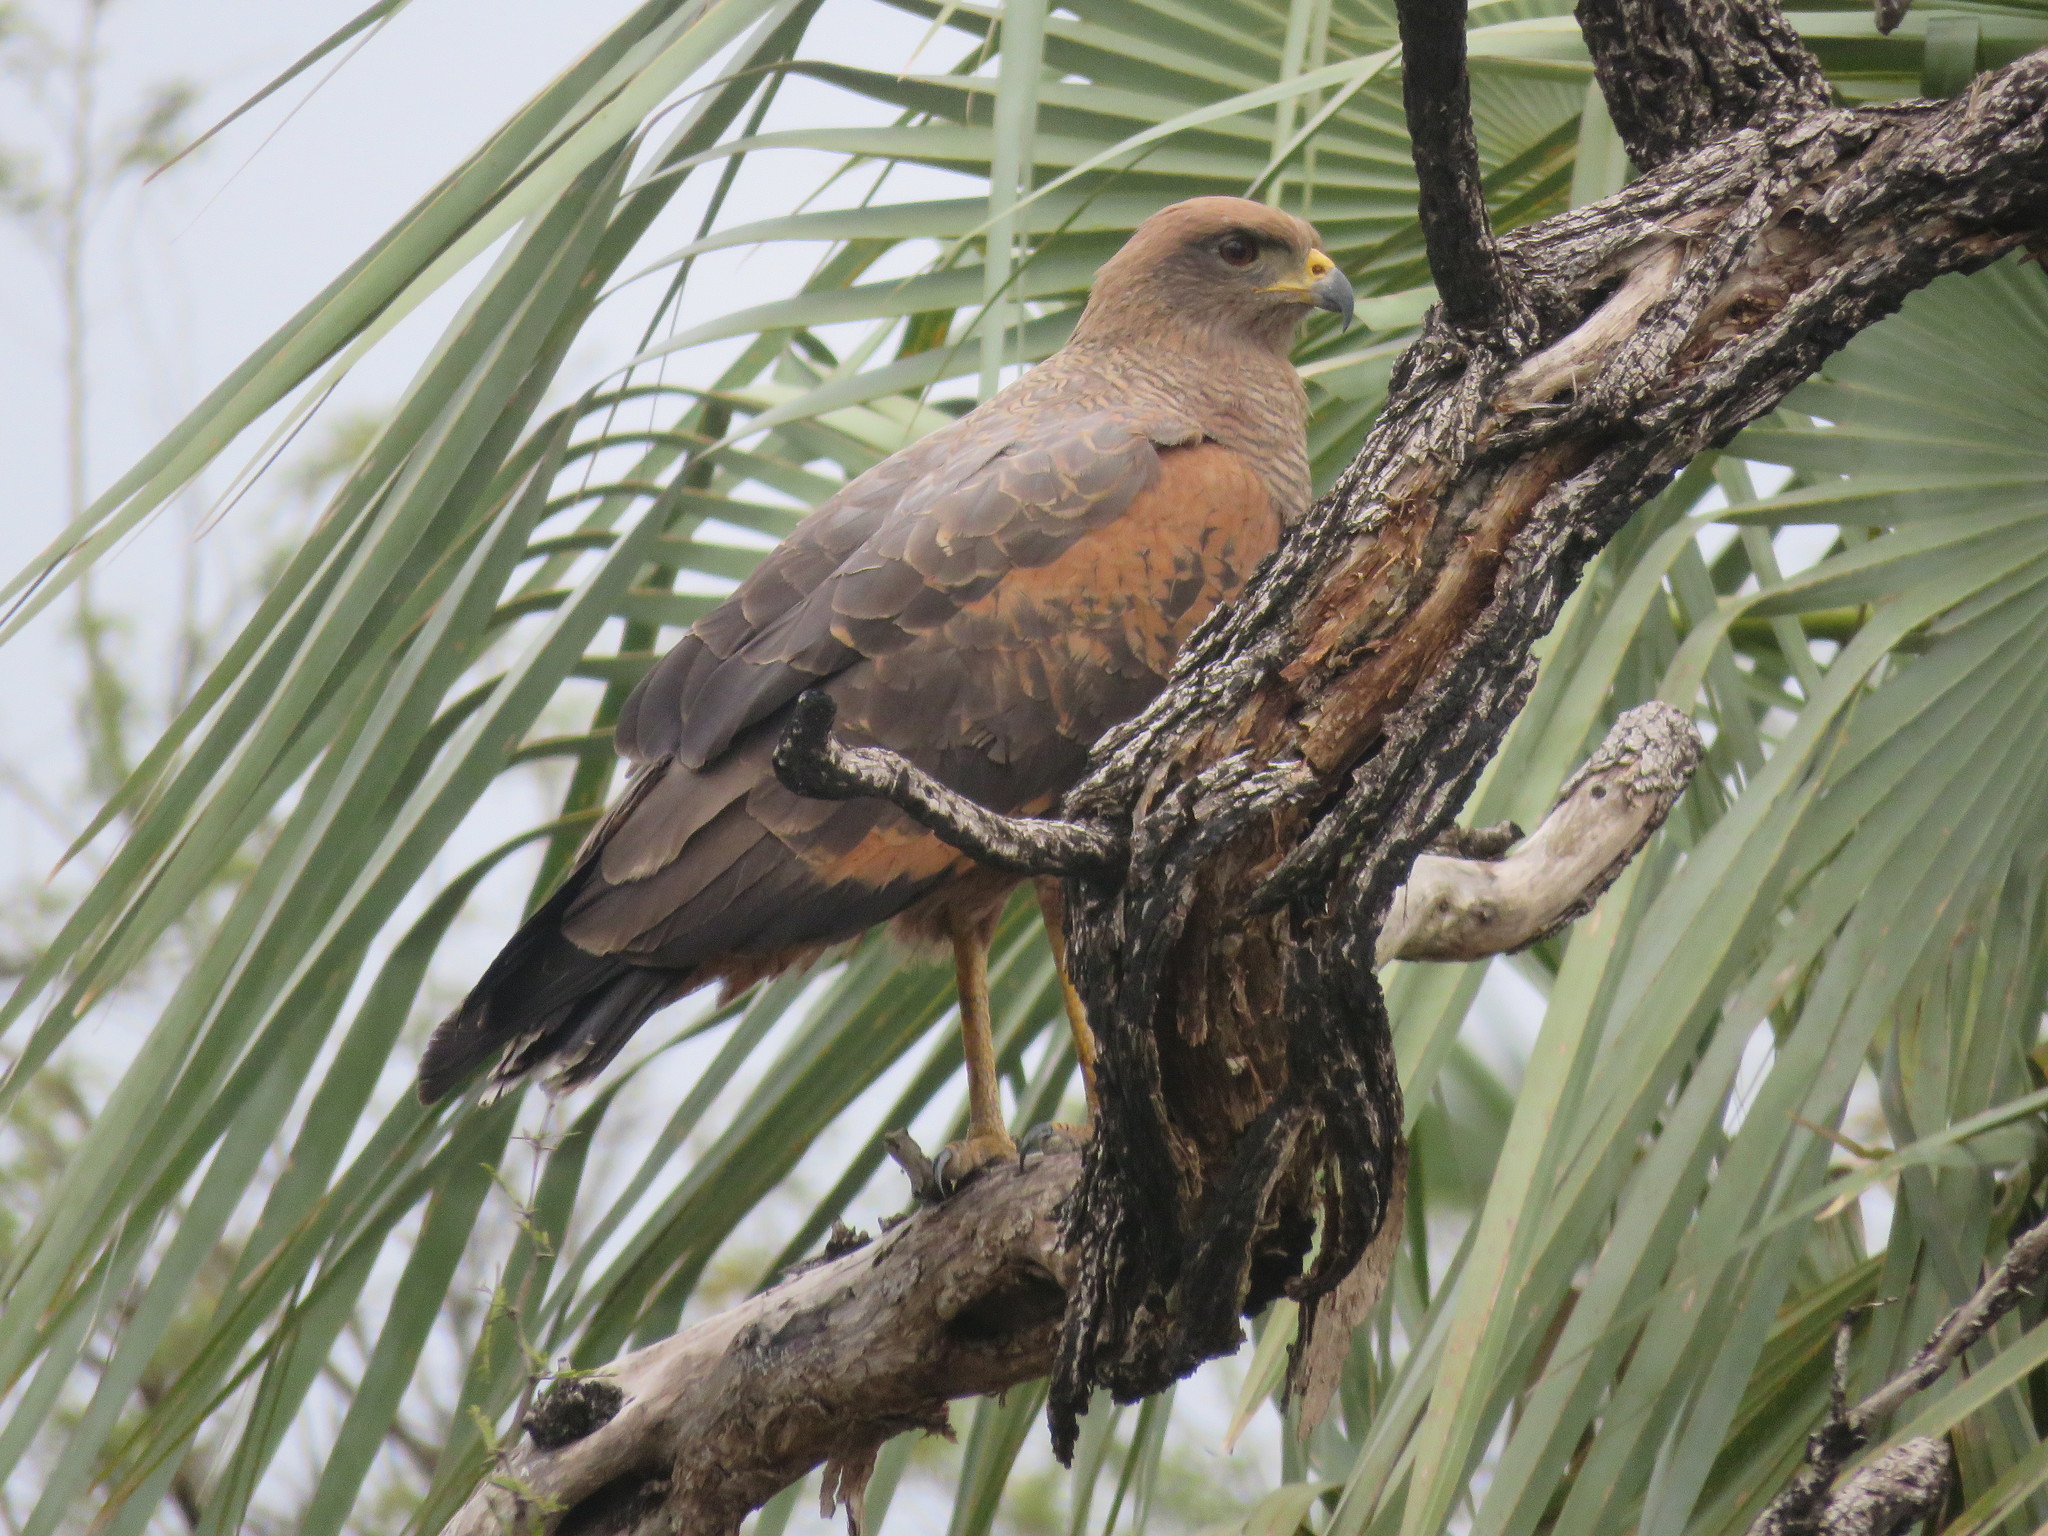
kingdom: Animalia
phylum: Chordata
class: Aves
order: Accipitriformes
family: Accipitridae
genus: Buteogallus
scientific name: Buteogallus meridionalis
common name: Savanna hawk
